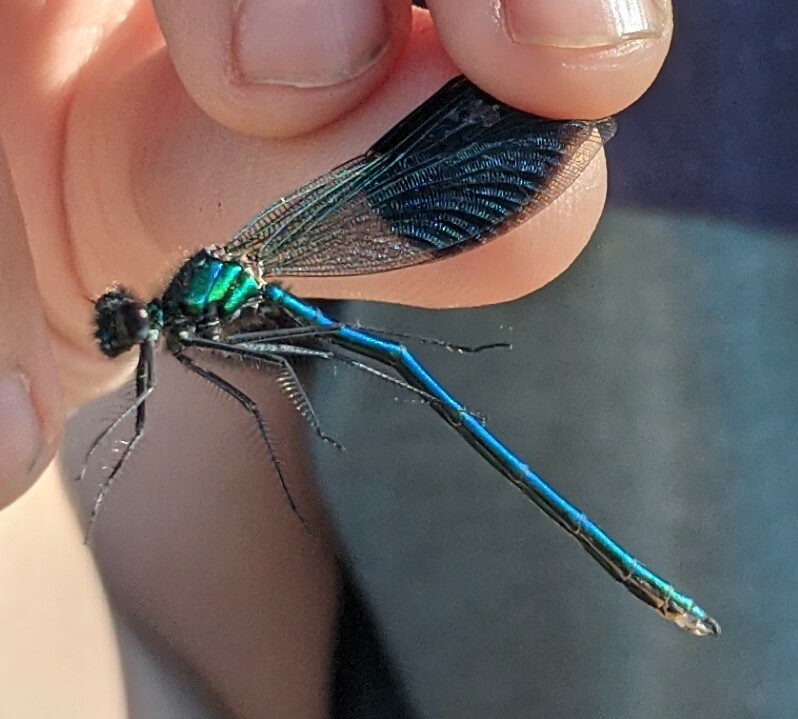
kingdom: Animalia
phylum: Arthropoda
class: Insecta
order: Odonata
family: Calopterygidae
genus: Calopteryx
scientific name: Calopteryx splendens
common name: Banded demoiselle
